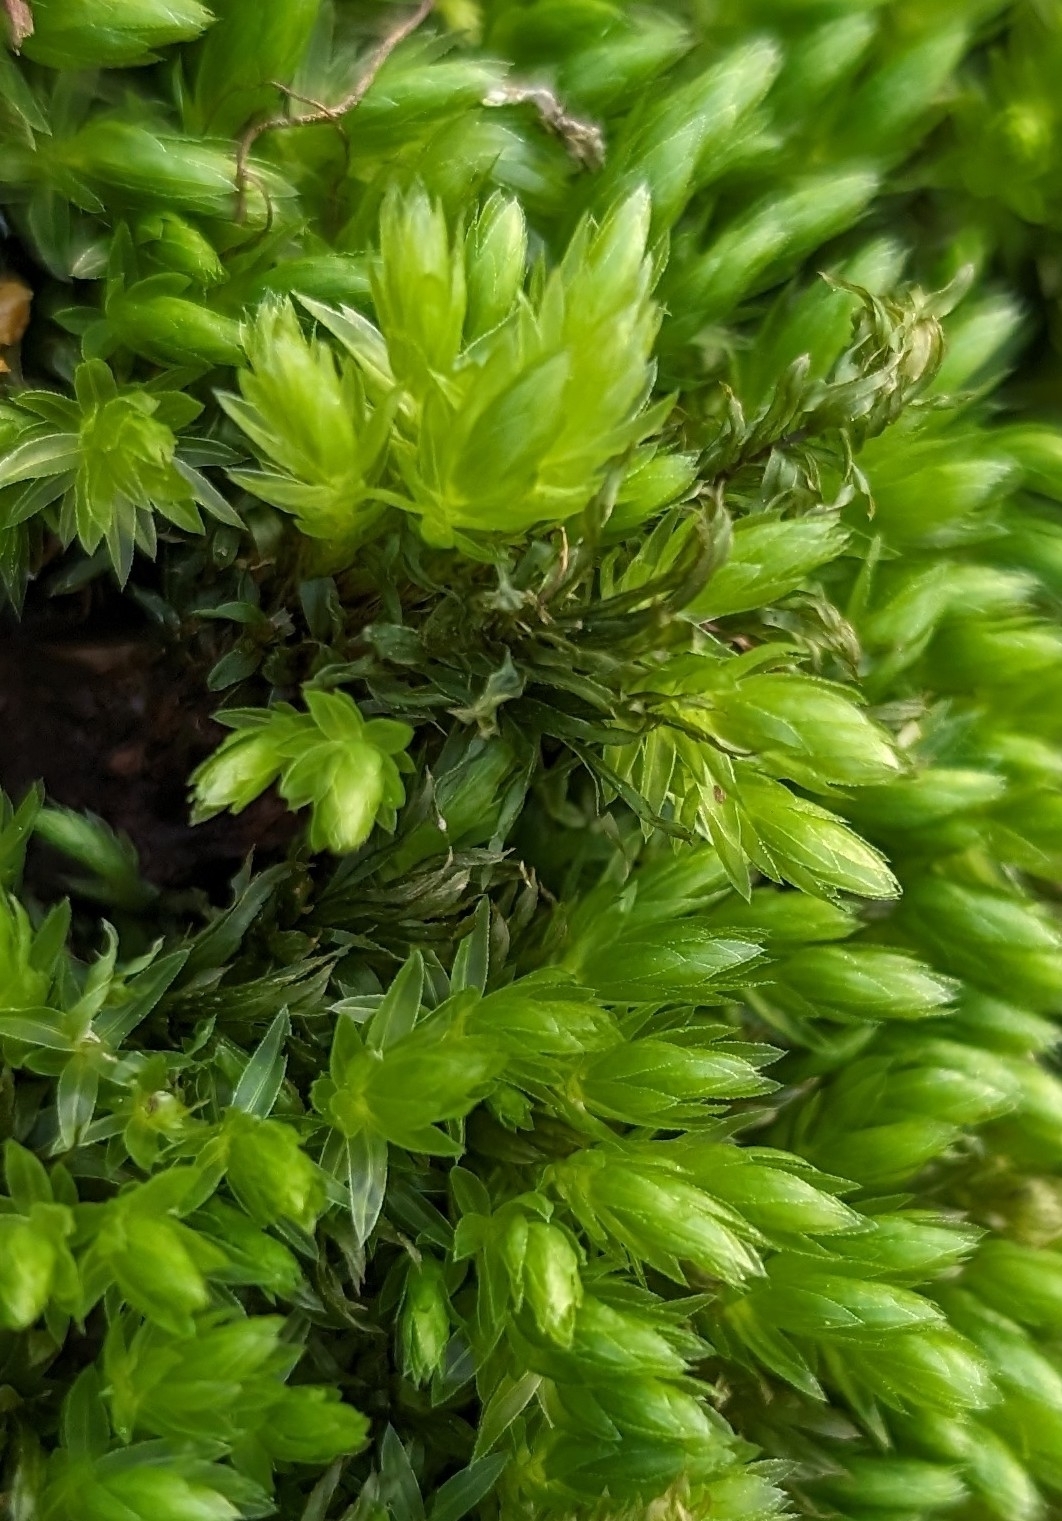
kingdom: Plantae
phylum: Bryophyta
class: Bryopsida
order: Bryales
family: Mniaceae
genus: Mnium
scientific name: Mnium hornum
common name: Swan's-neck leafy moss
